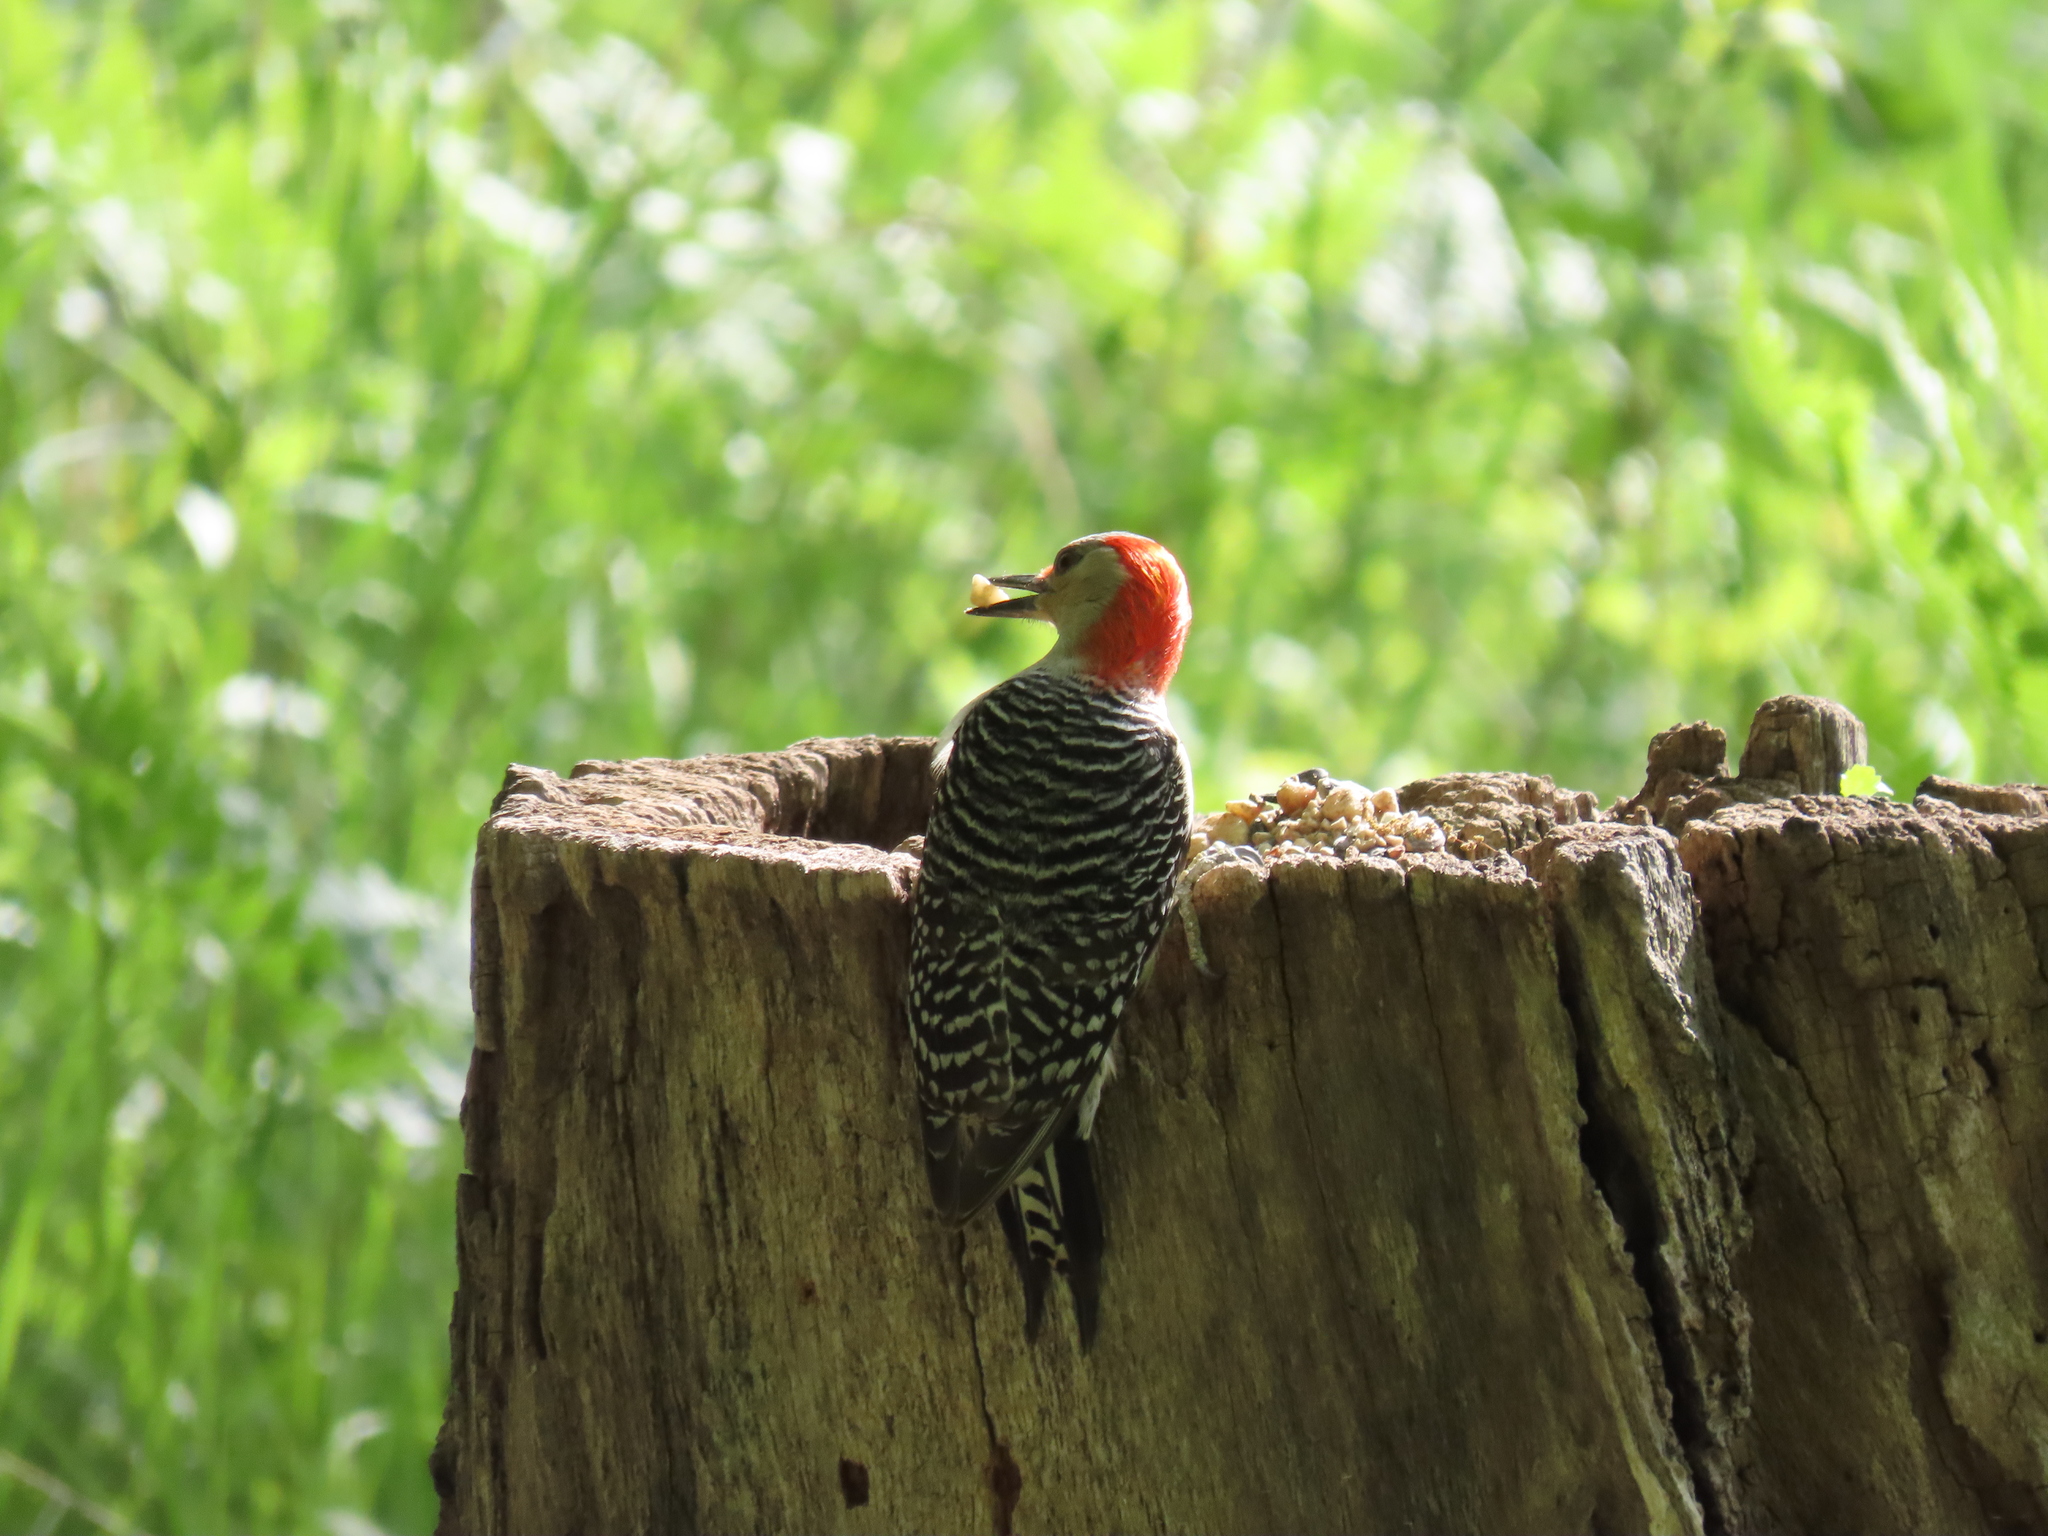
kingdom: Animalia
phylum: Chordata
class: Aves
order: Piciformes
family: Picidae
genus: Melanerpes
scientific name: Melanerpes carolinus
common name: Red-bellied woodpecker
